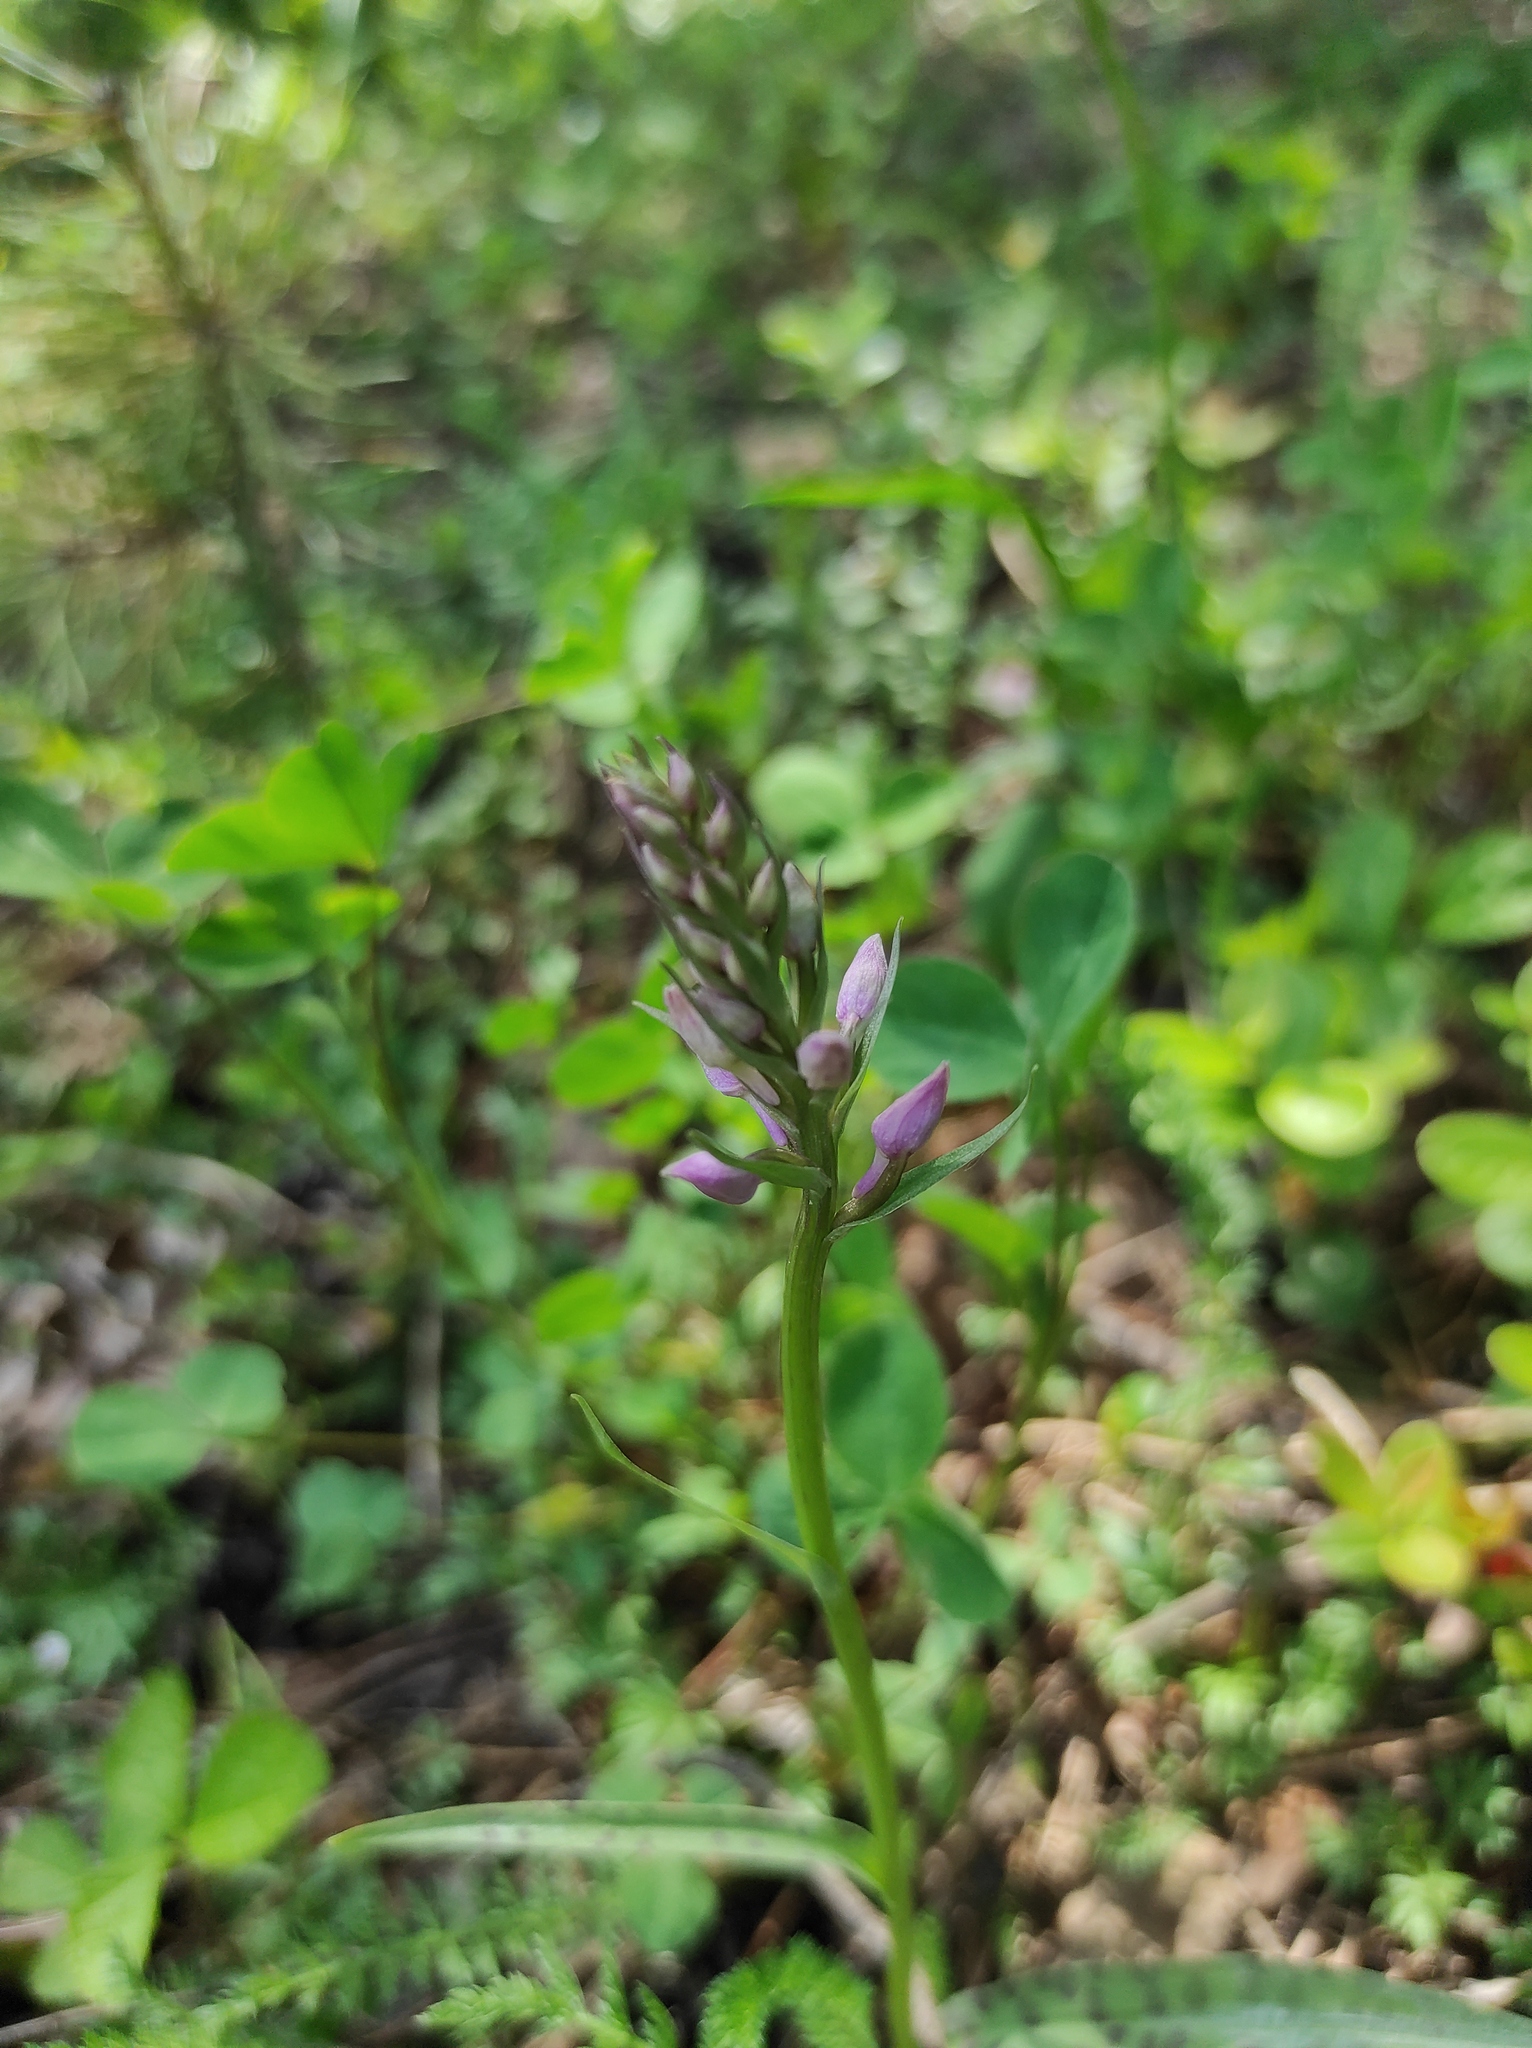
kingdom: Plantae
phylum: Tracheophyta
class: Liliopsida
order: Asparagales
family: Orchidaceae
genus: Dactylorhiza
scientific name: Dactylorhiza maculata
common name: Heath spotted-orchid
